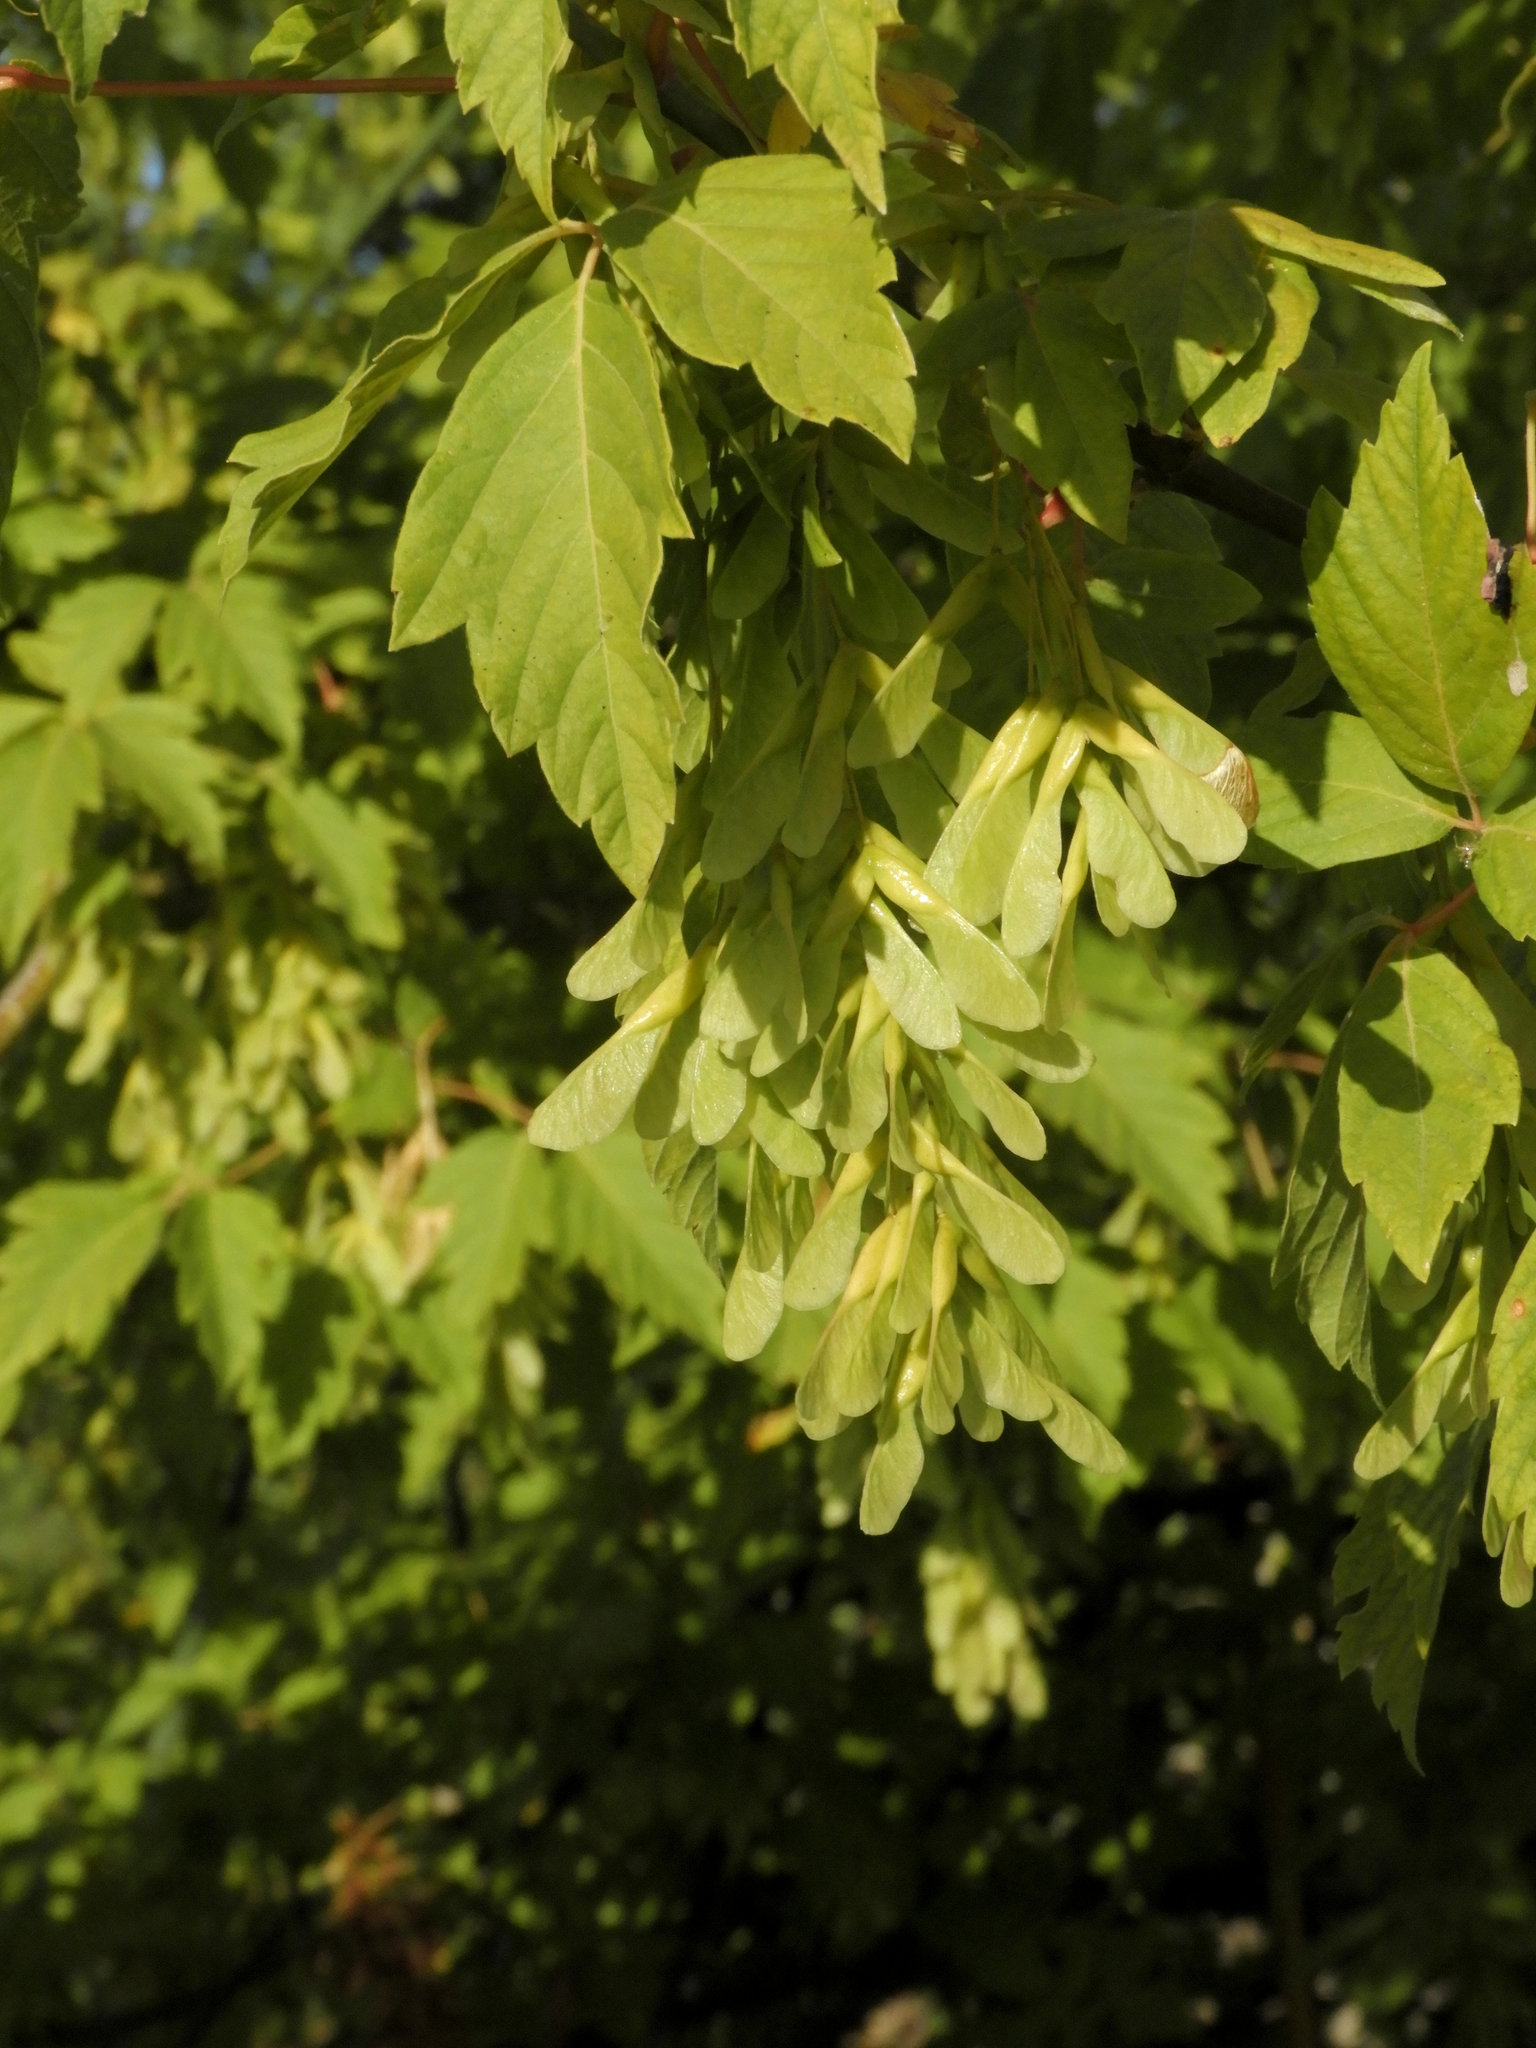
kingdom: Plantae
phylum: Tracheophyta
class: Magnoliopsida
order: Sapindales
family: Sapindaceae
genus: Acer
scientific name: Acer negundo
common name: Ashleaf maple
